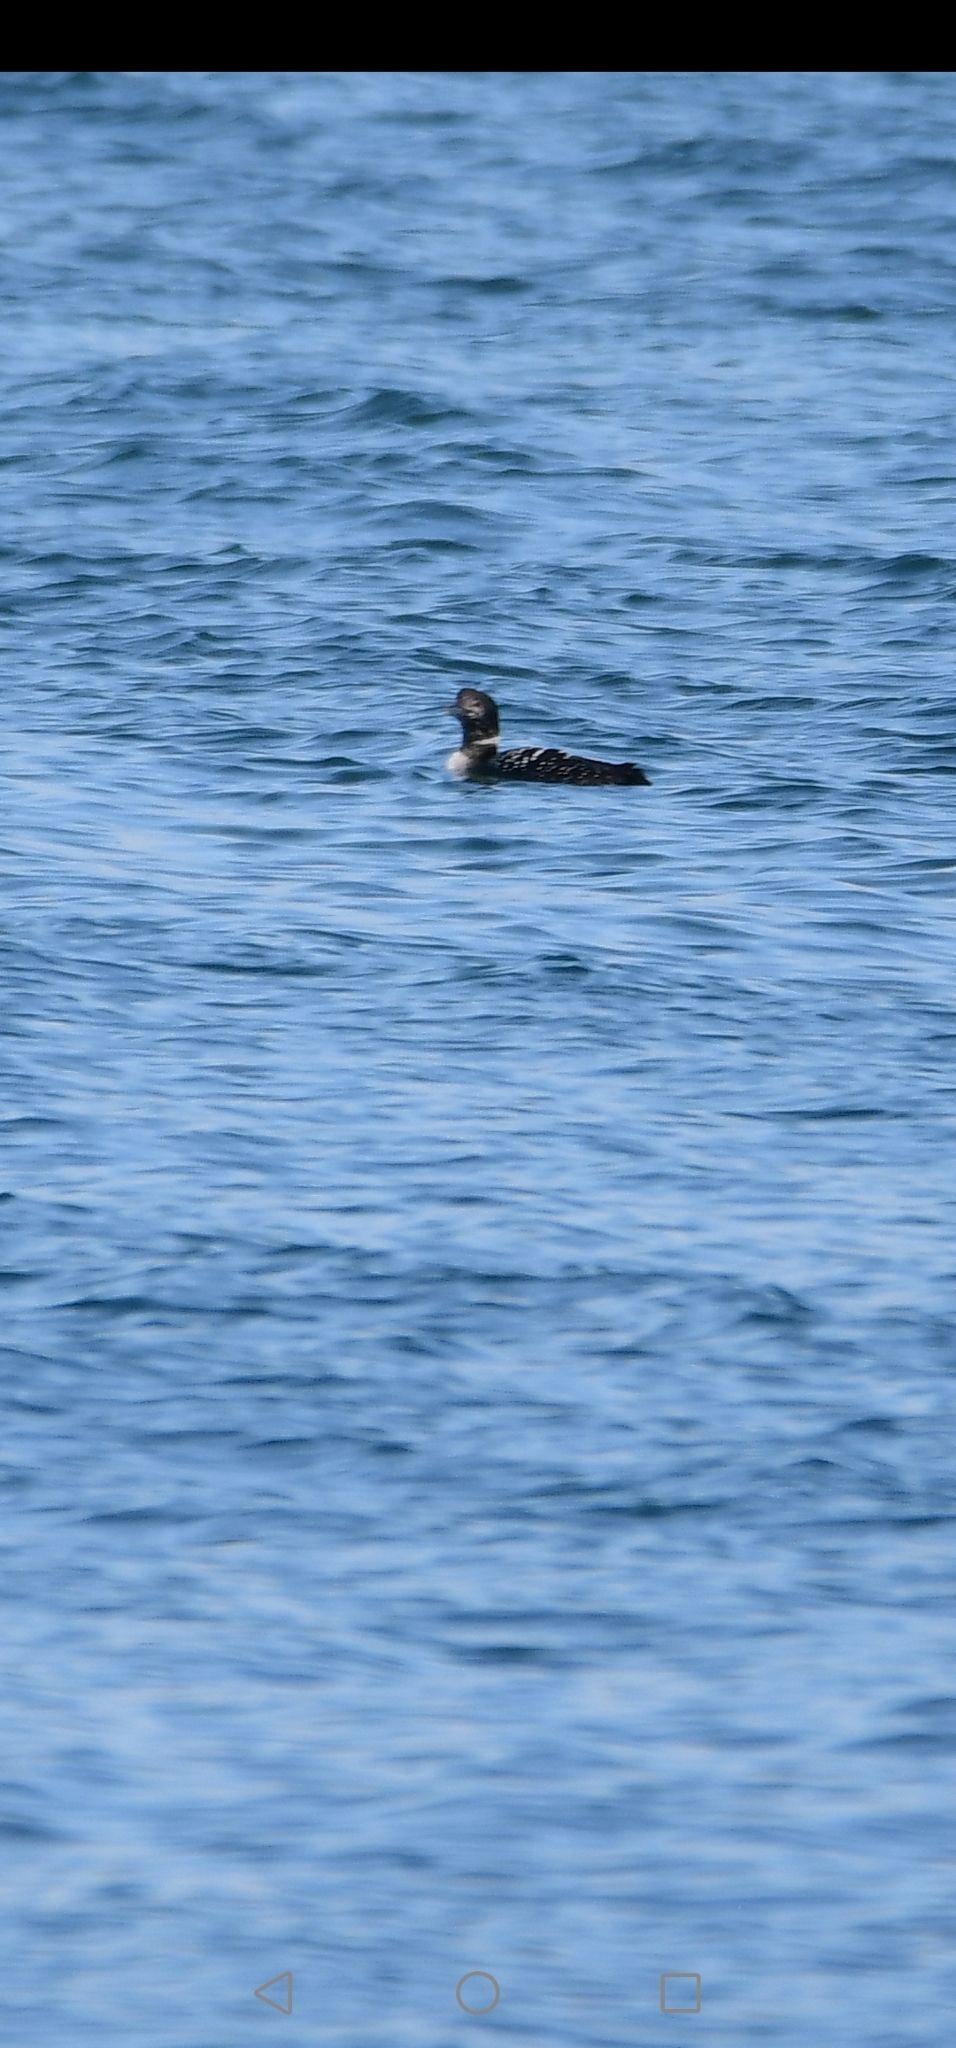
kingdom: Animalia
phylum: Chordata
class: Aves
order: Gaviiformes
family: Gaviidae
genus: Gavia
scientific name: Gavia immer
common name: Common loon
